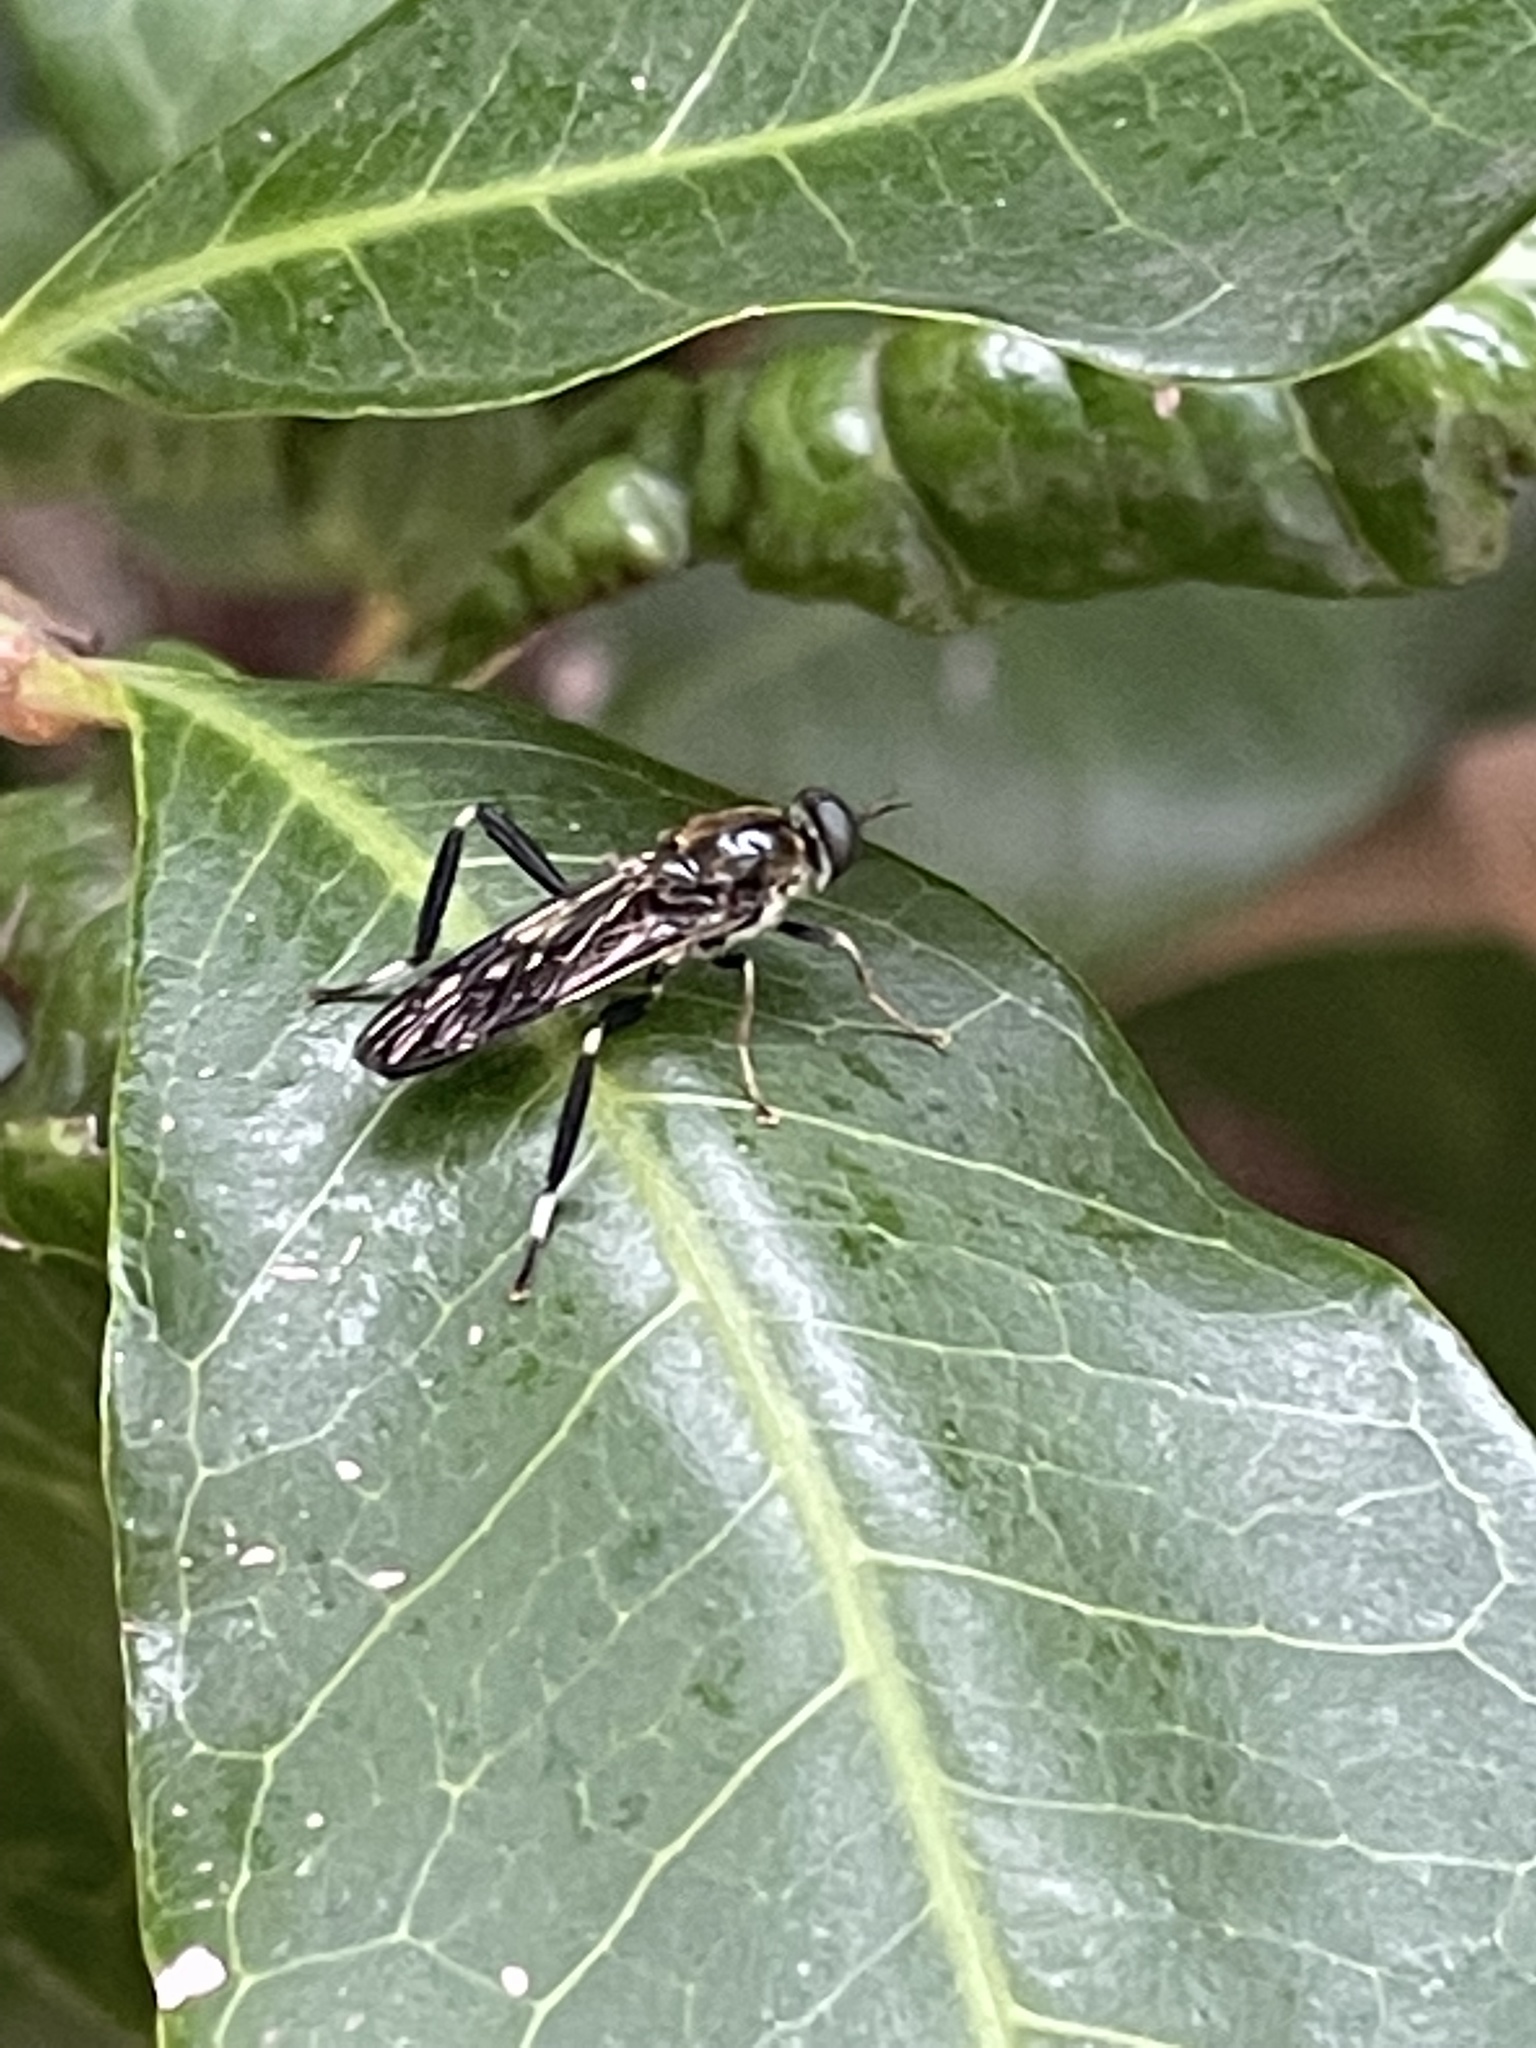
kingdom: Animalia
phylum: Arthropoda
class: Insecta
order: Diptera
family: Stratiomyidae
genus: Exaireta
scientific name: Exaireta spinigera
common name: Blue soldier fly
